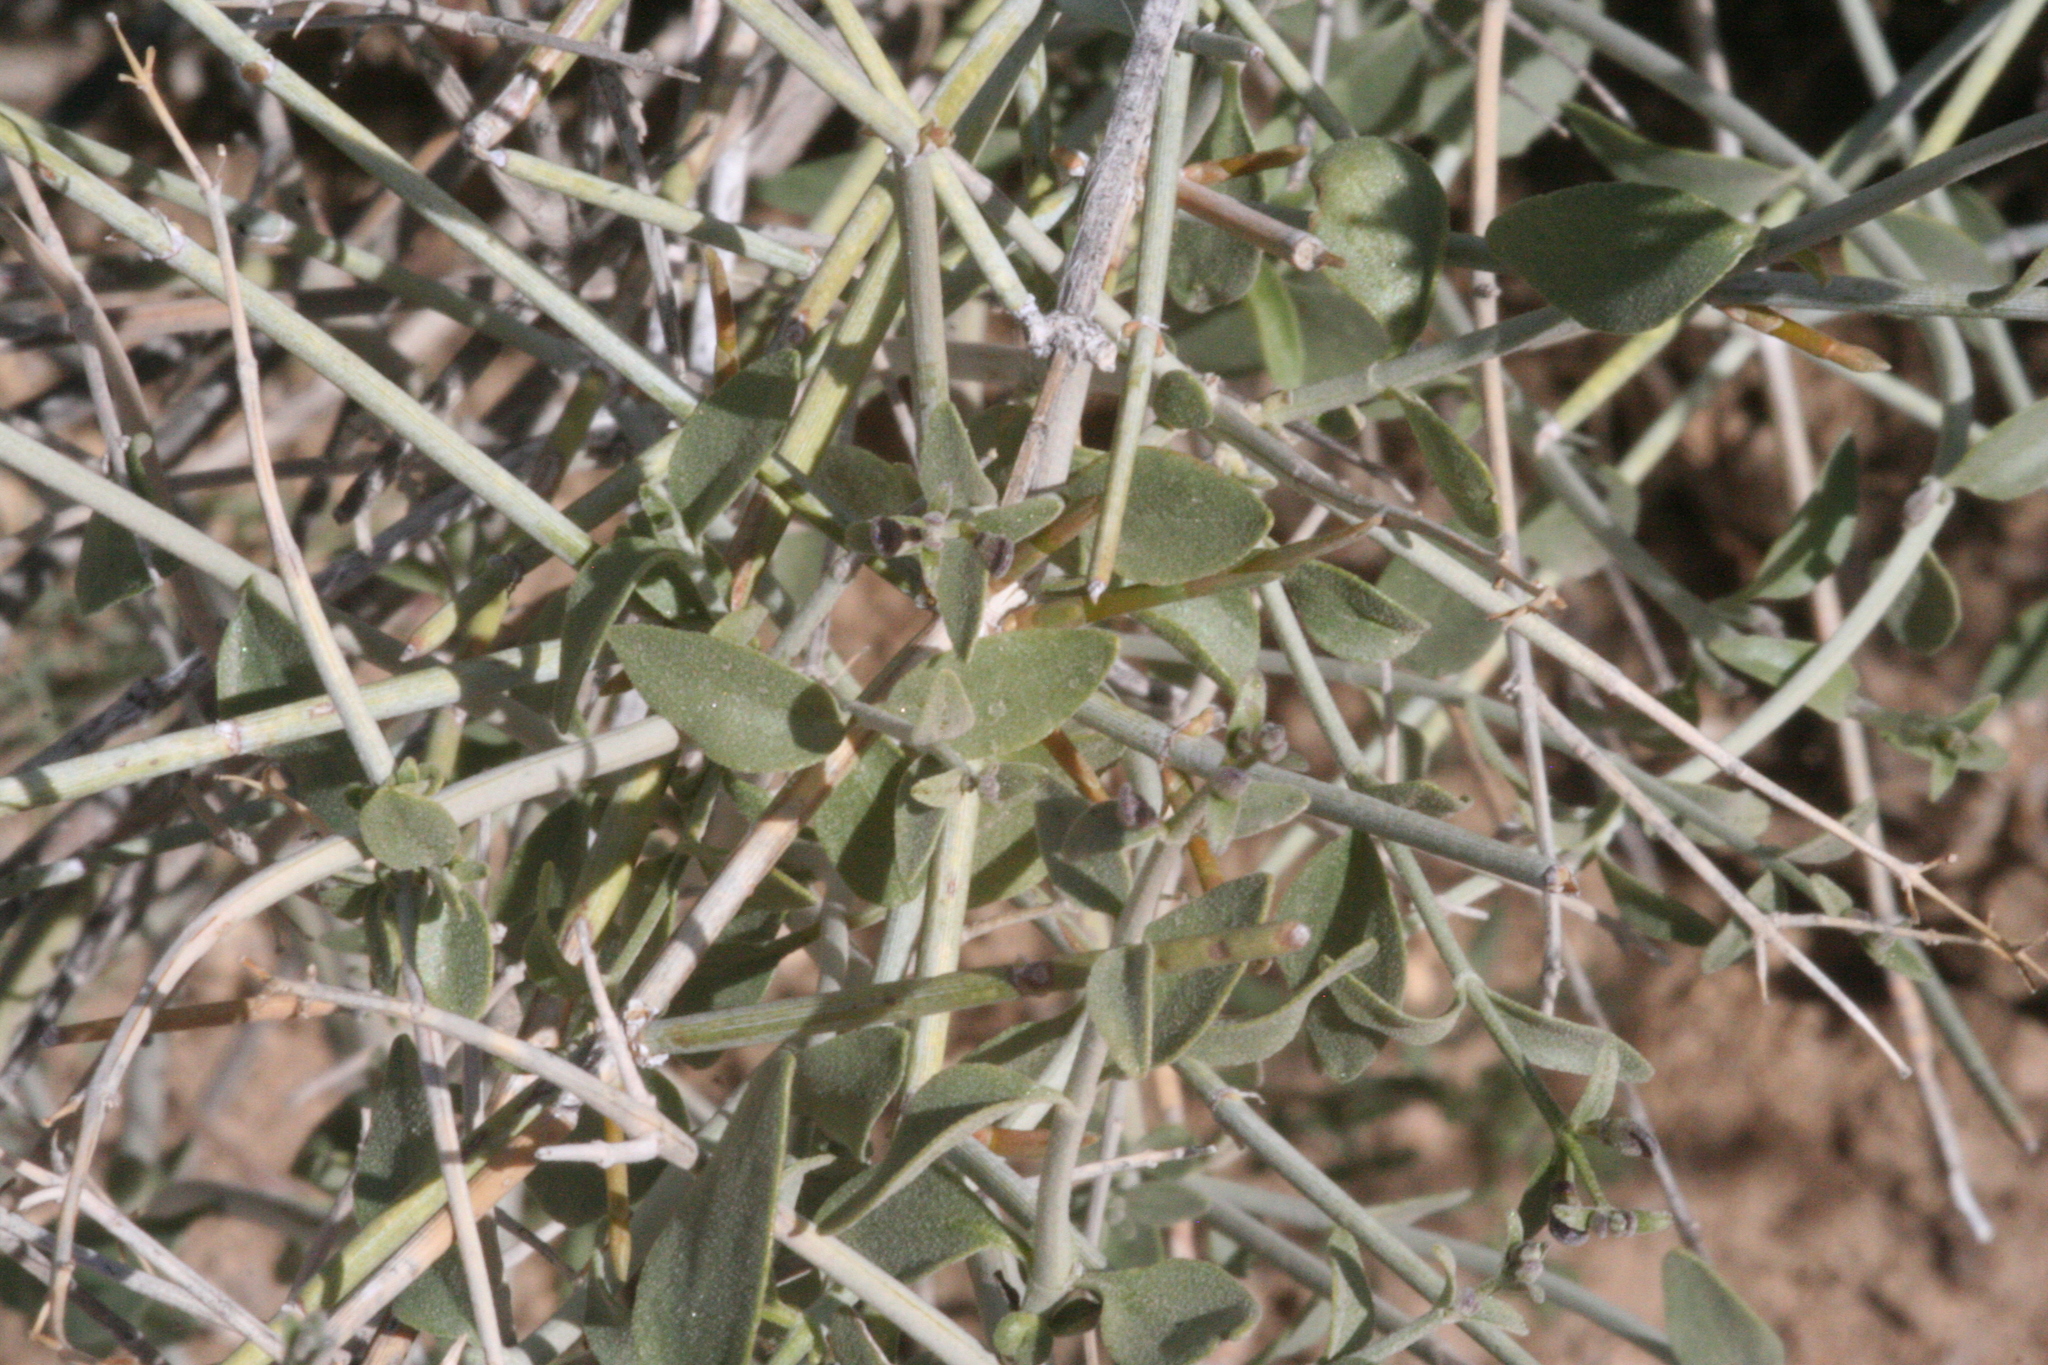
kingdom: Plantae
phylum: Tracheophyta
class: Magnoliopsida
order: Lamiales
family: Lamiaceae
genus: Scutellaria
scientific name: Scutellaria mexicana
